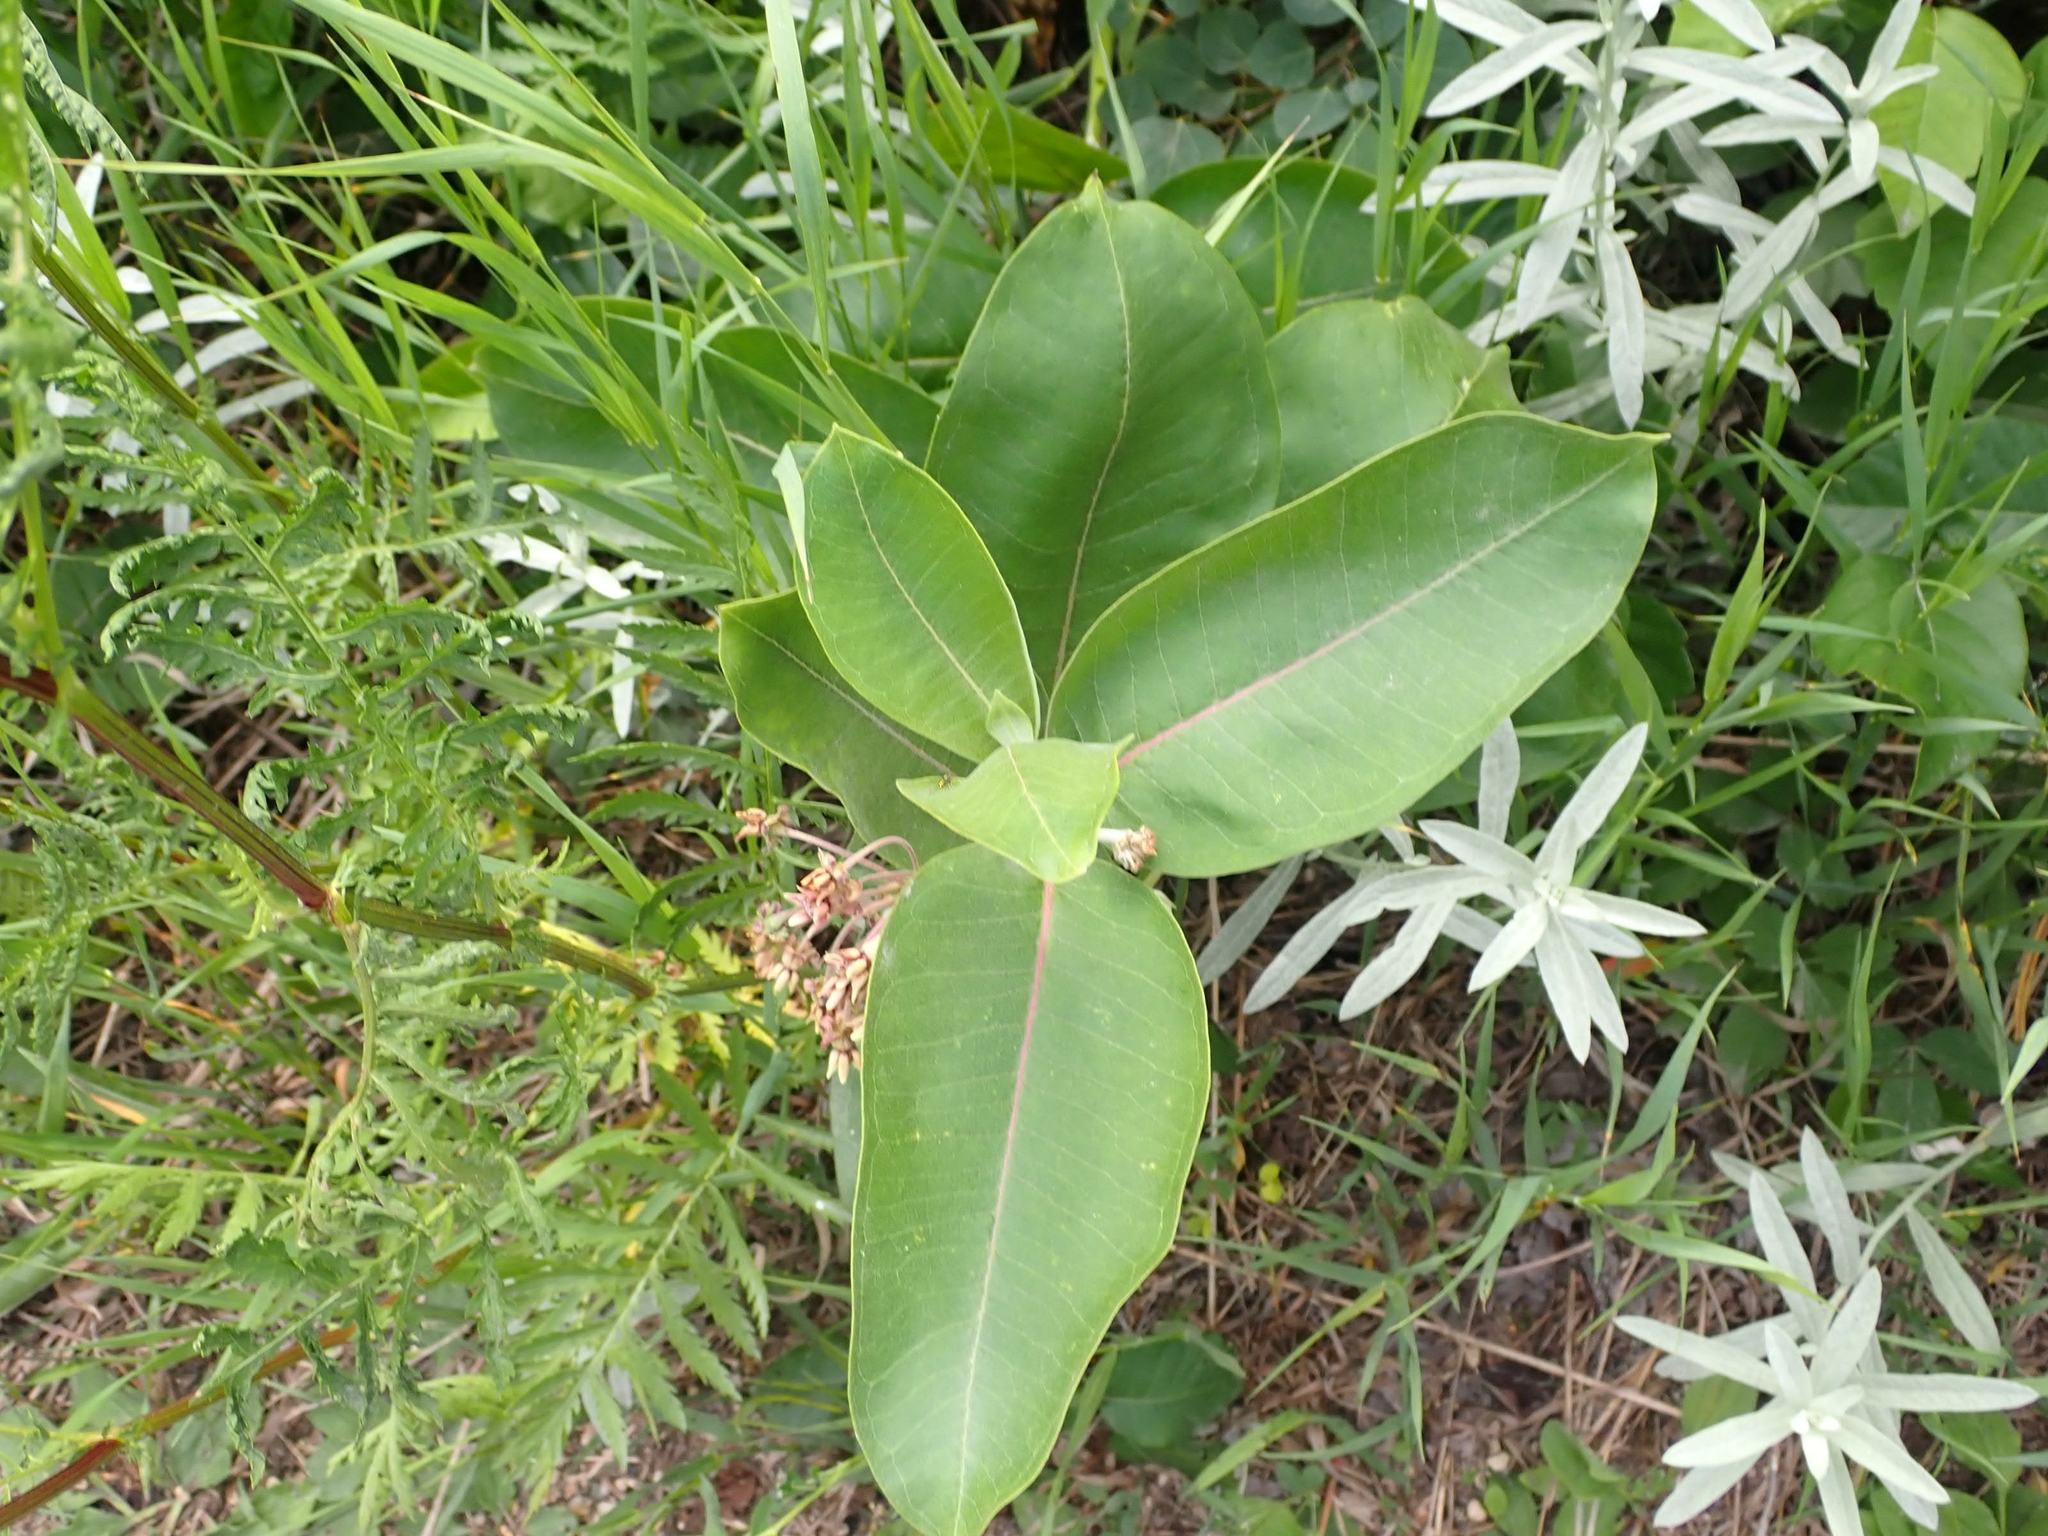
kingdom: Plantae
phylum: Tracheophyta
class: Magnoliopsida
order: Gentianales
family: Apocynaceae
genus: Asclepias
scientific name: Asclepias syriaca
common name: Common milkweed
